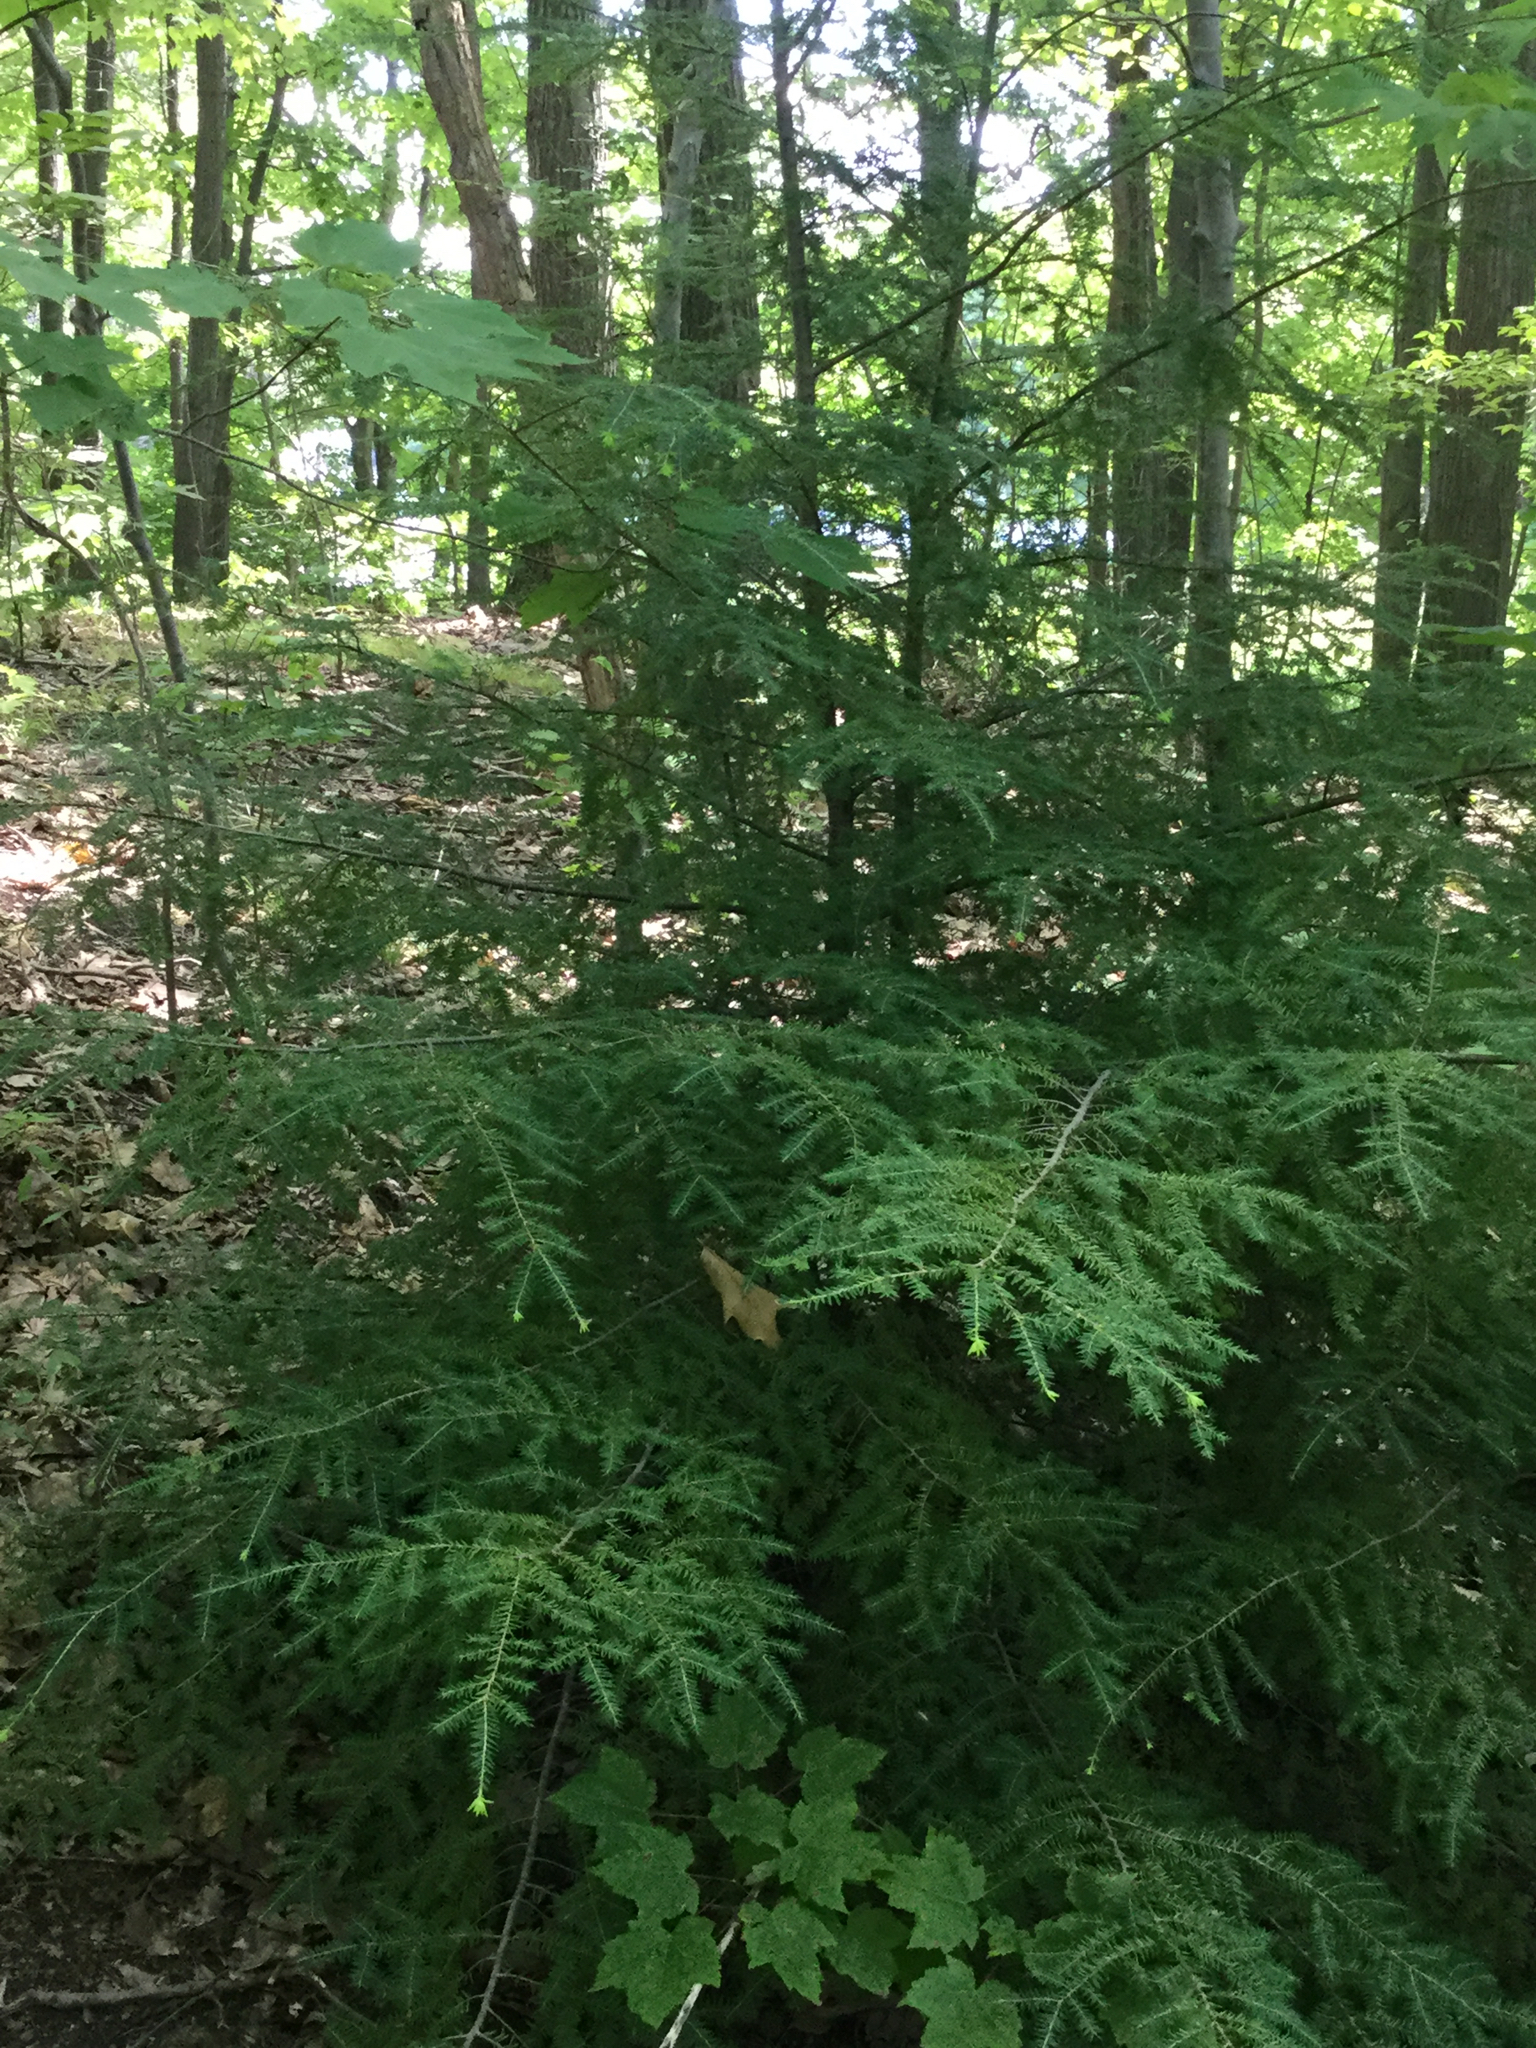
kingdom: Plantae
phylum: Tracheophyta
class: Pinopsida
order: Pinales
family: Pinaceae
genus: Tsuga
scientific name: Tsuga canadensis
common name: Eastern hemlock
